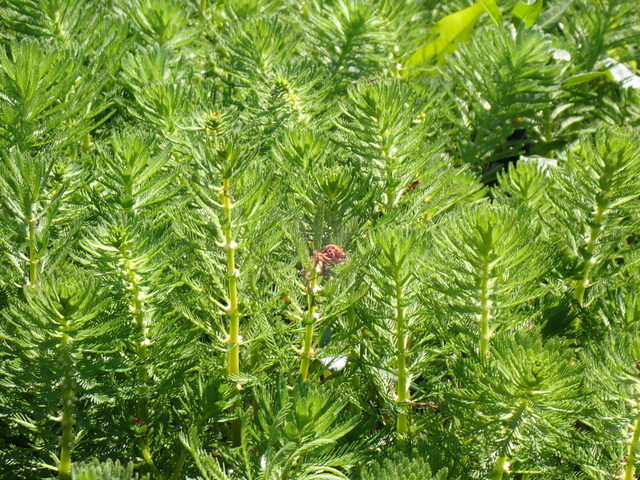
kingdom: Plantae
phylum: Tracheophyta
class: Magnoliopsida
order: Saxifragales
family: Haloragaceae
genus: Myriophyllum
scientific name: Myriophyllum aquaticum
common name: Parrot's feather
